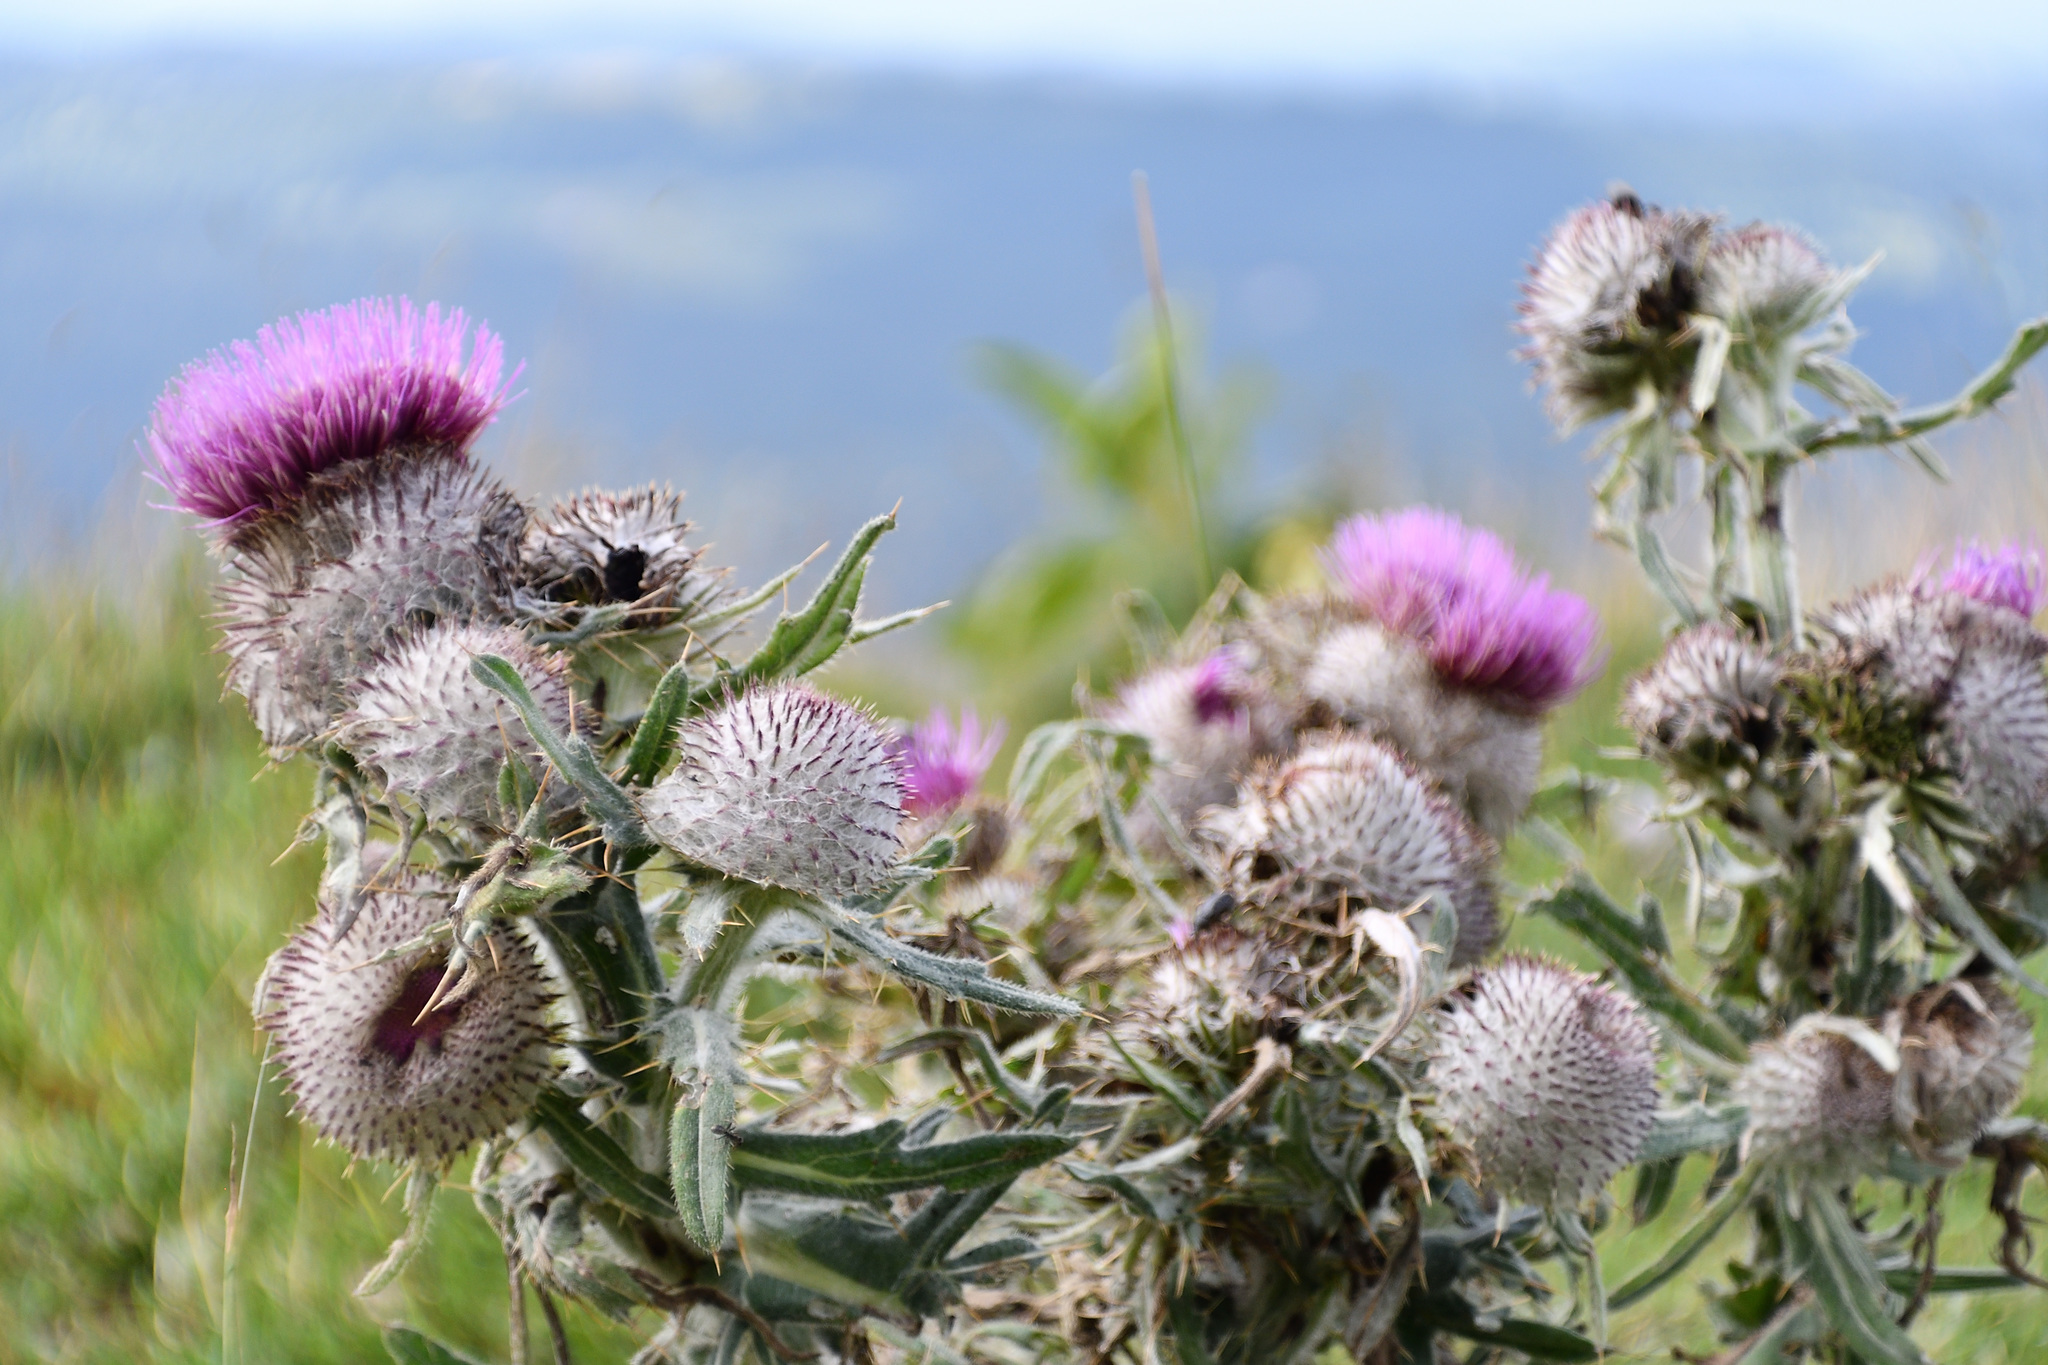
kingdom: Plantae
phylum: Tracheophyta
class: Magnoliopsida
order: Asterales
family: Asteraceae
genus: Lophiolepis
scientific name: Lophiolepis eriophora
